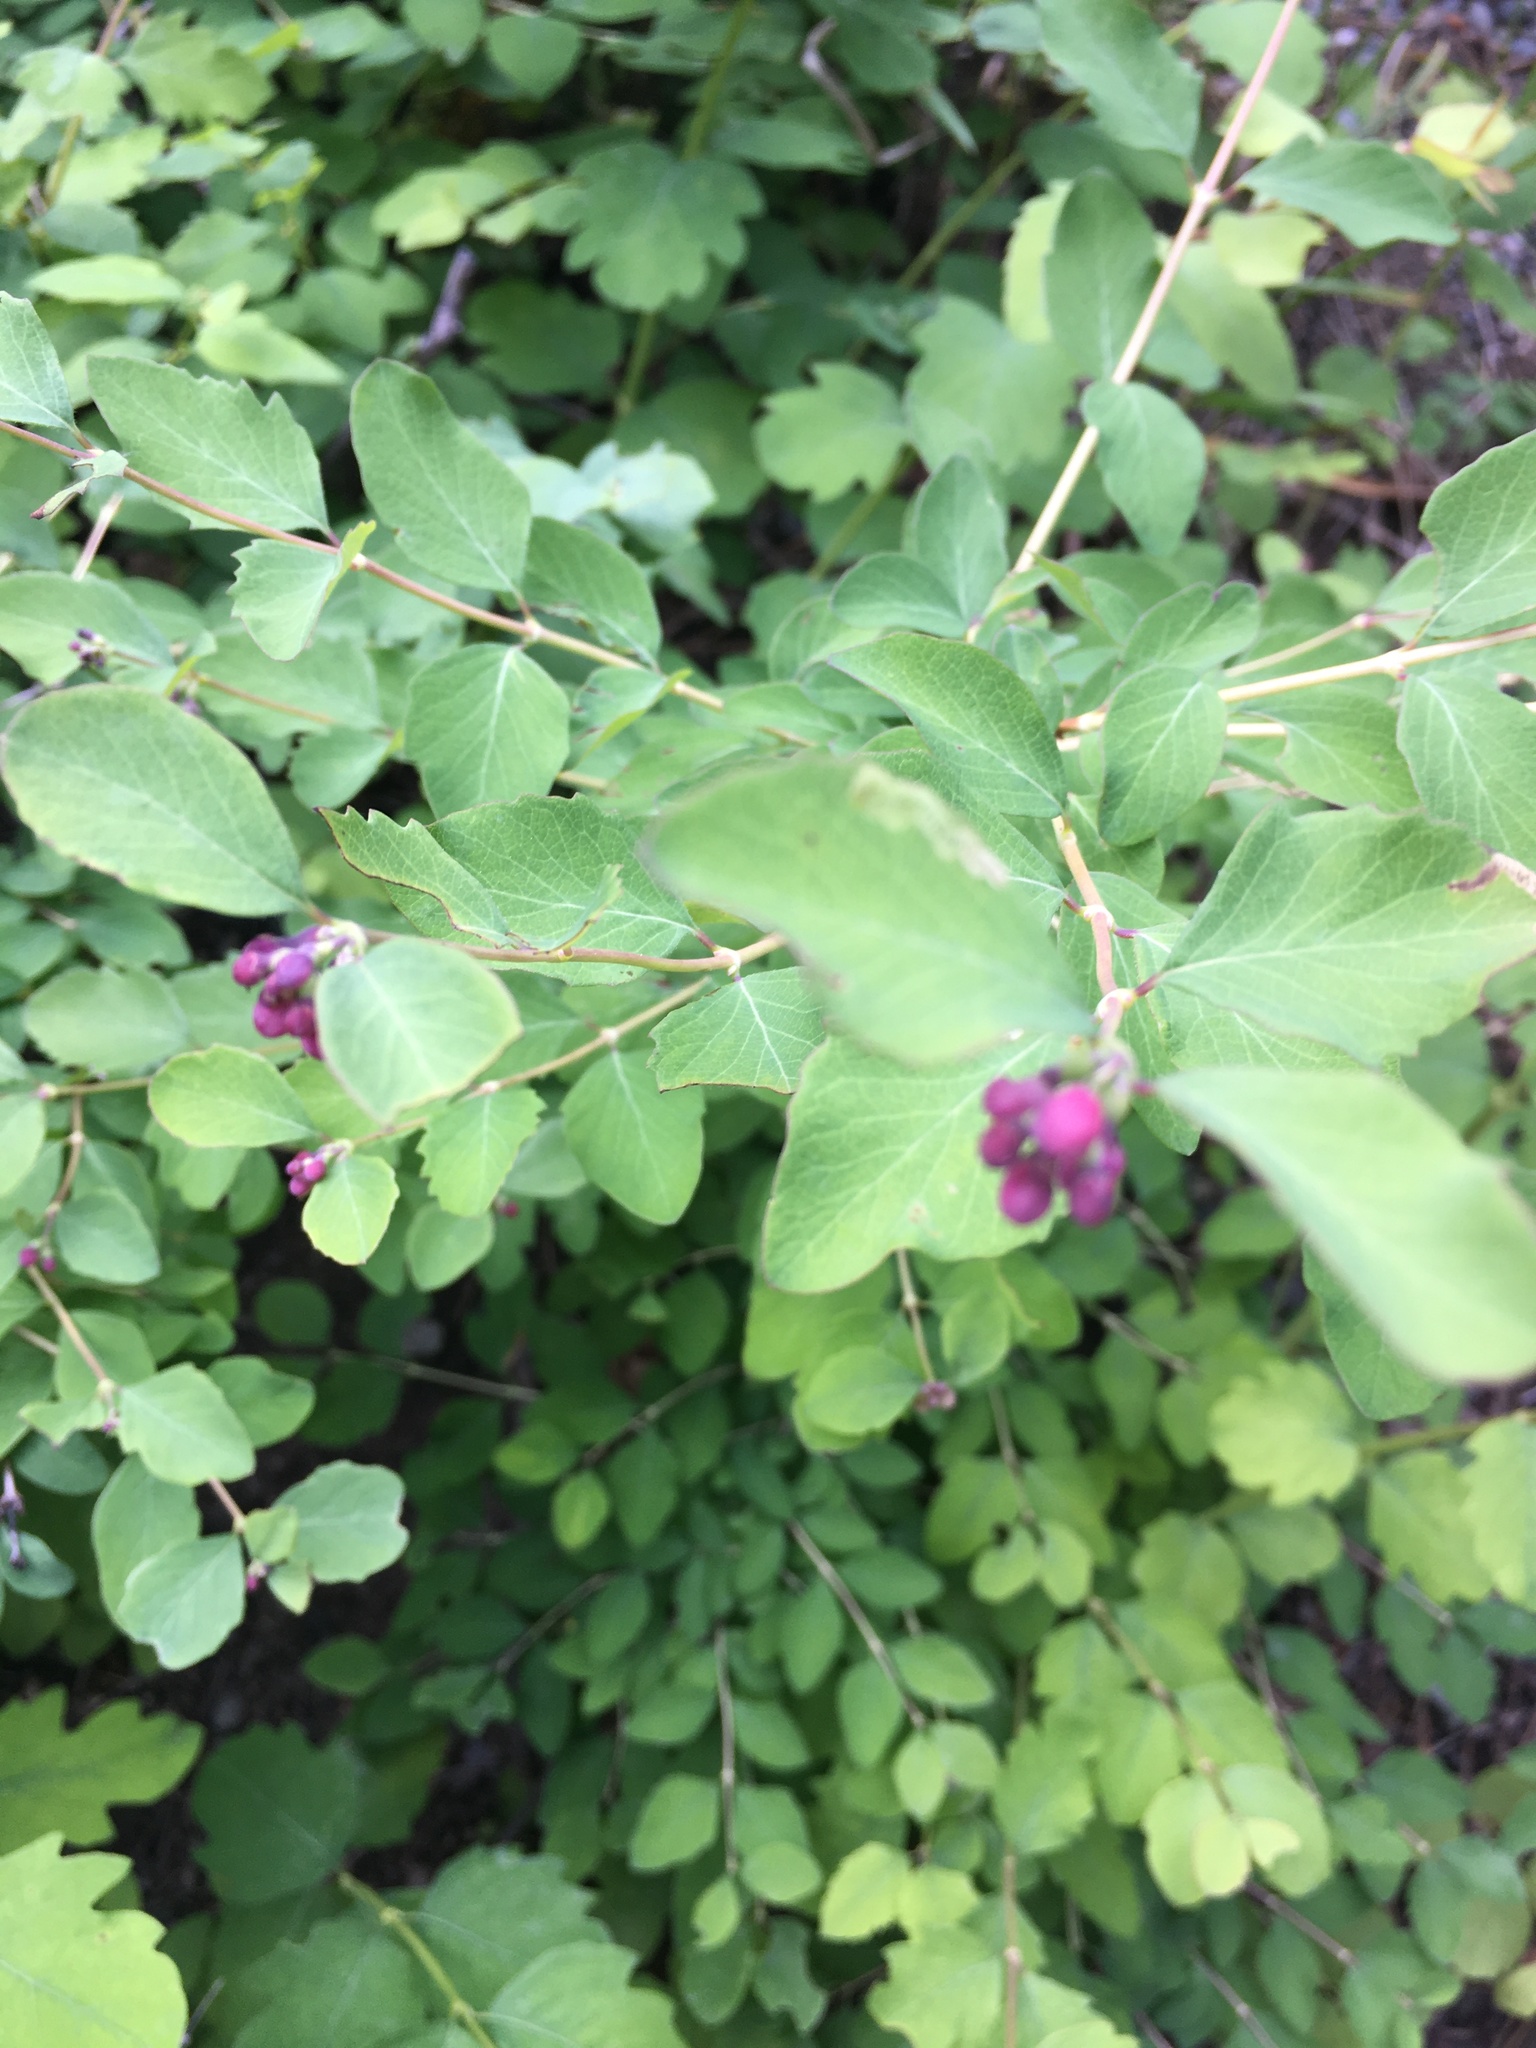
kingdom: Plantae
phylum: Tracheophyta
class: Magnoliopsida
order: Dipsacales
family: Caprifoliaceae
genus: Symphoricarpos
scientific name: Symphoricarpos albus
